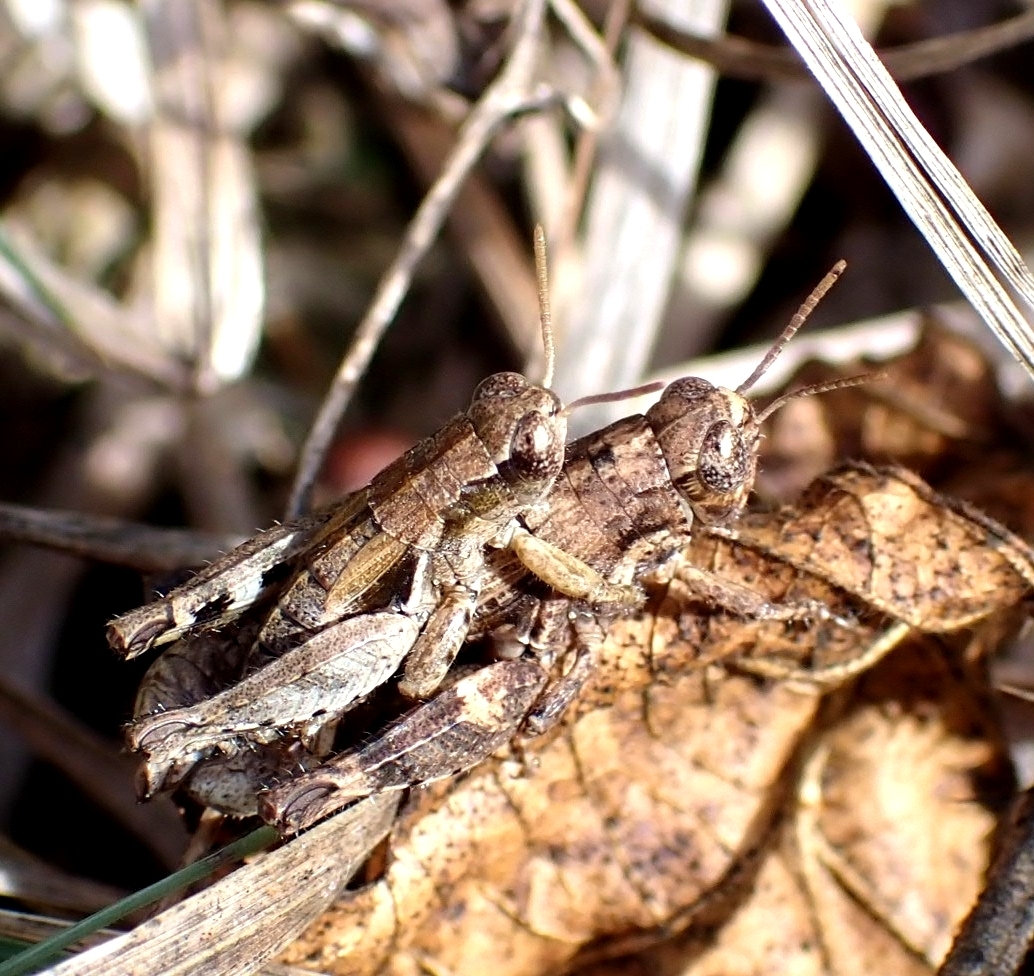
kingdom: Animalia
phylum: Arthropoda
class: Insecta
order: Orthoptera
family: Acrididae
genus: Pezotettix
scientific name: Pezotettix giornae
